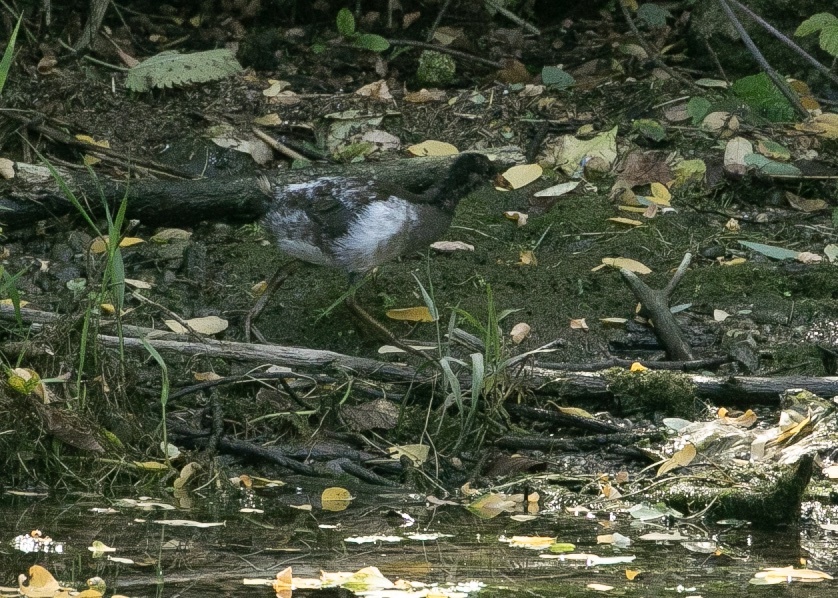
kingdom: Animalia
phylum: Chordata
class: Aves
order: Gruiformes
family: Rallidae
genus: Gallinula
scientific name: Gallinula chloropus
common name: Common moorhen
